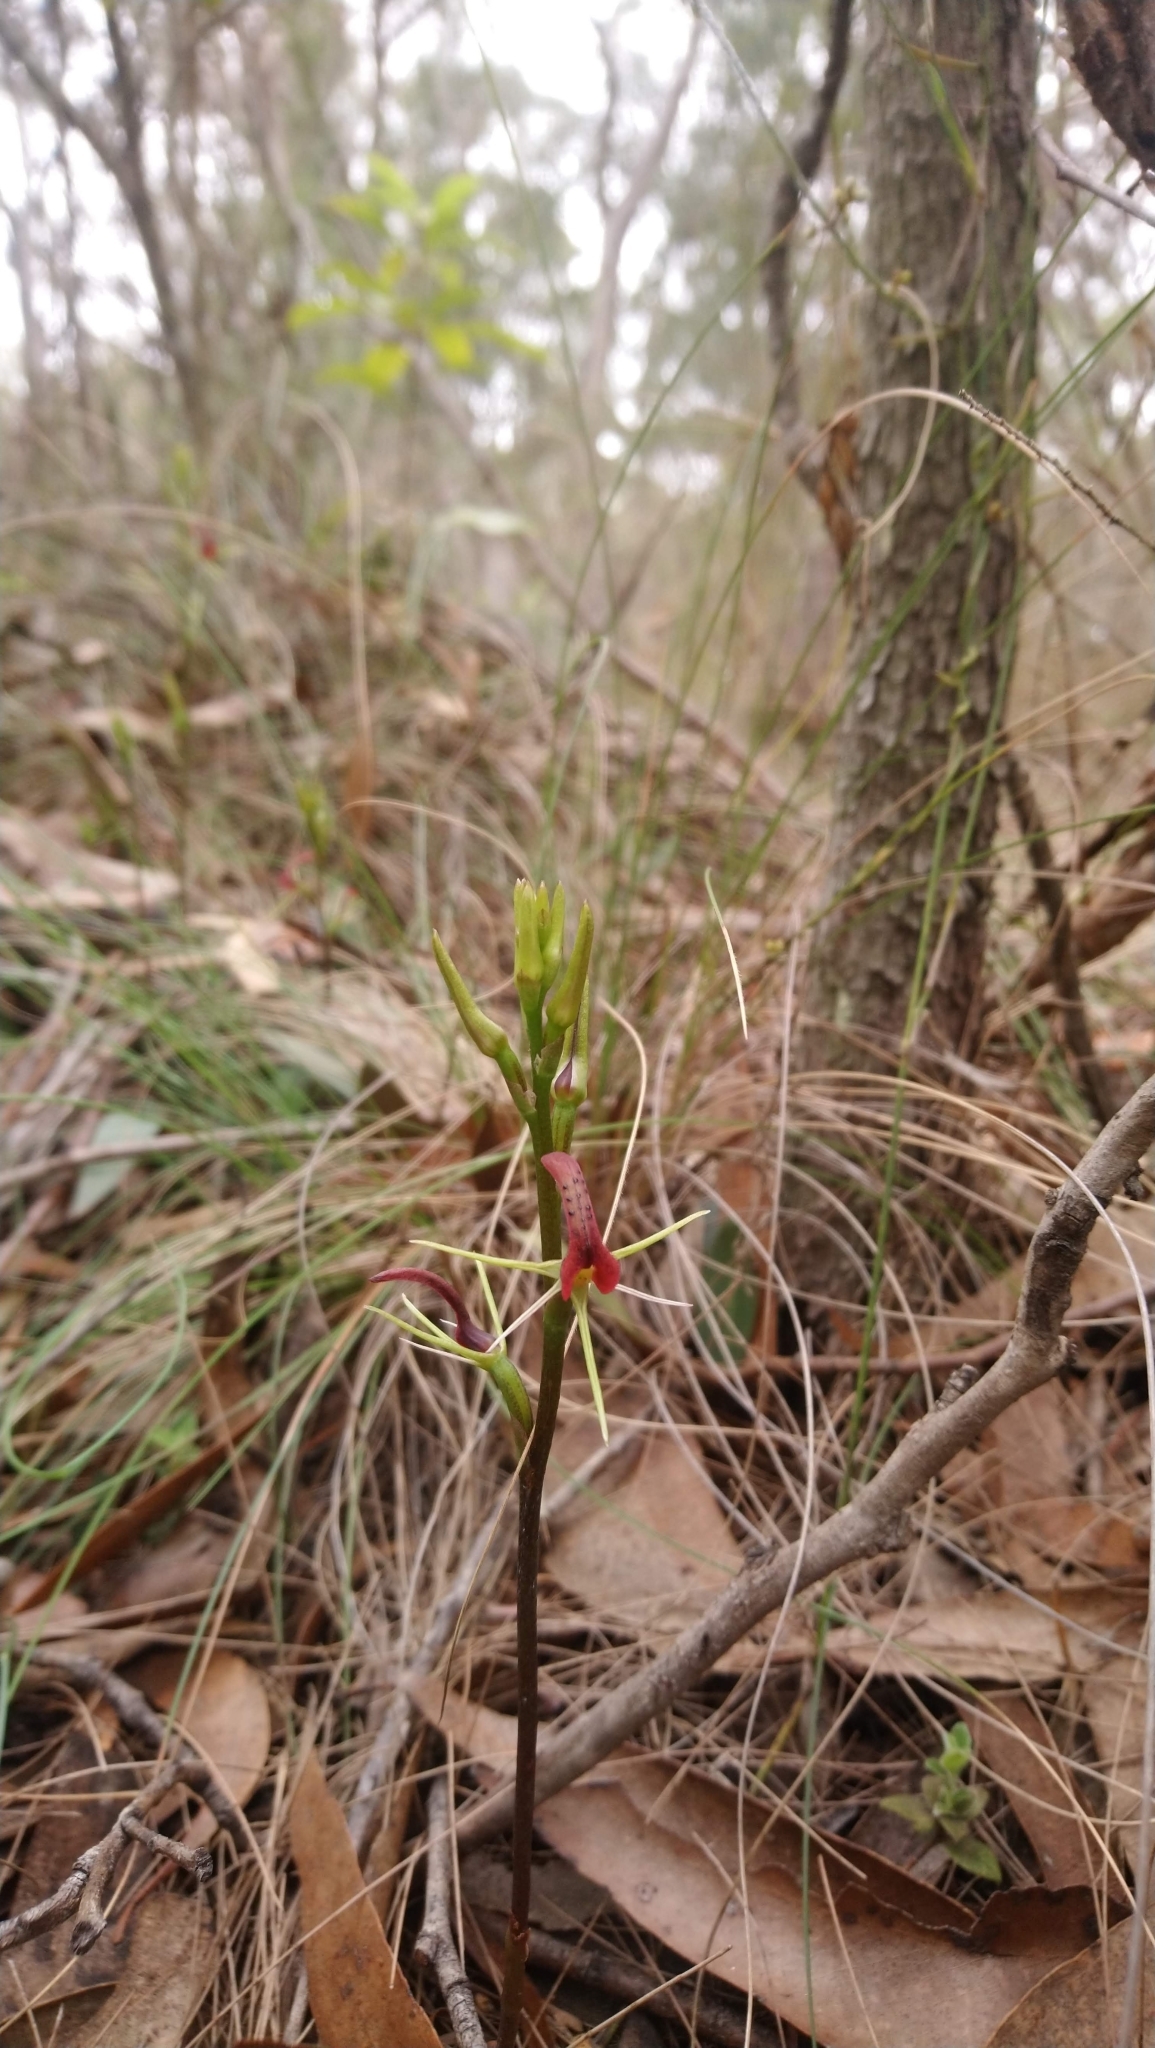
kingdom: Plantae
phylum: Tracheophyta
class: Liliopsida
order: Asparagales
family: Orchidaceae
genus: Cryptostylis
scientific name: Cryptostylis leptochila
